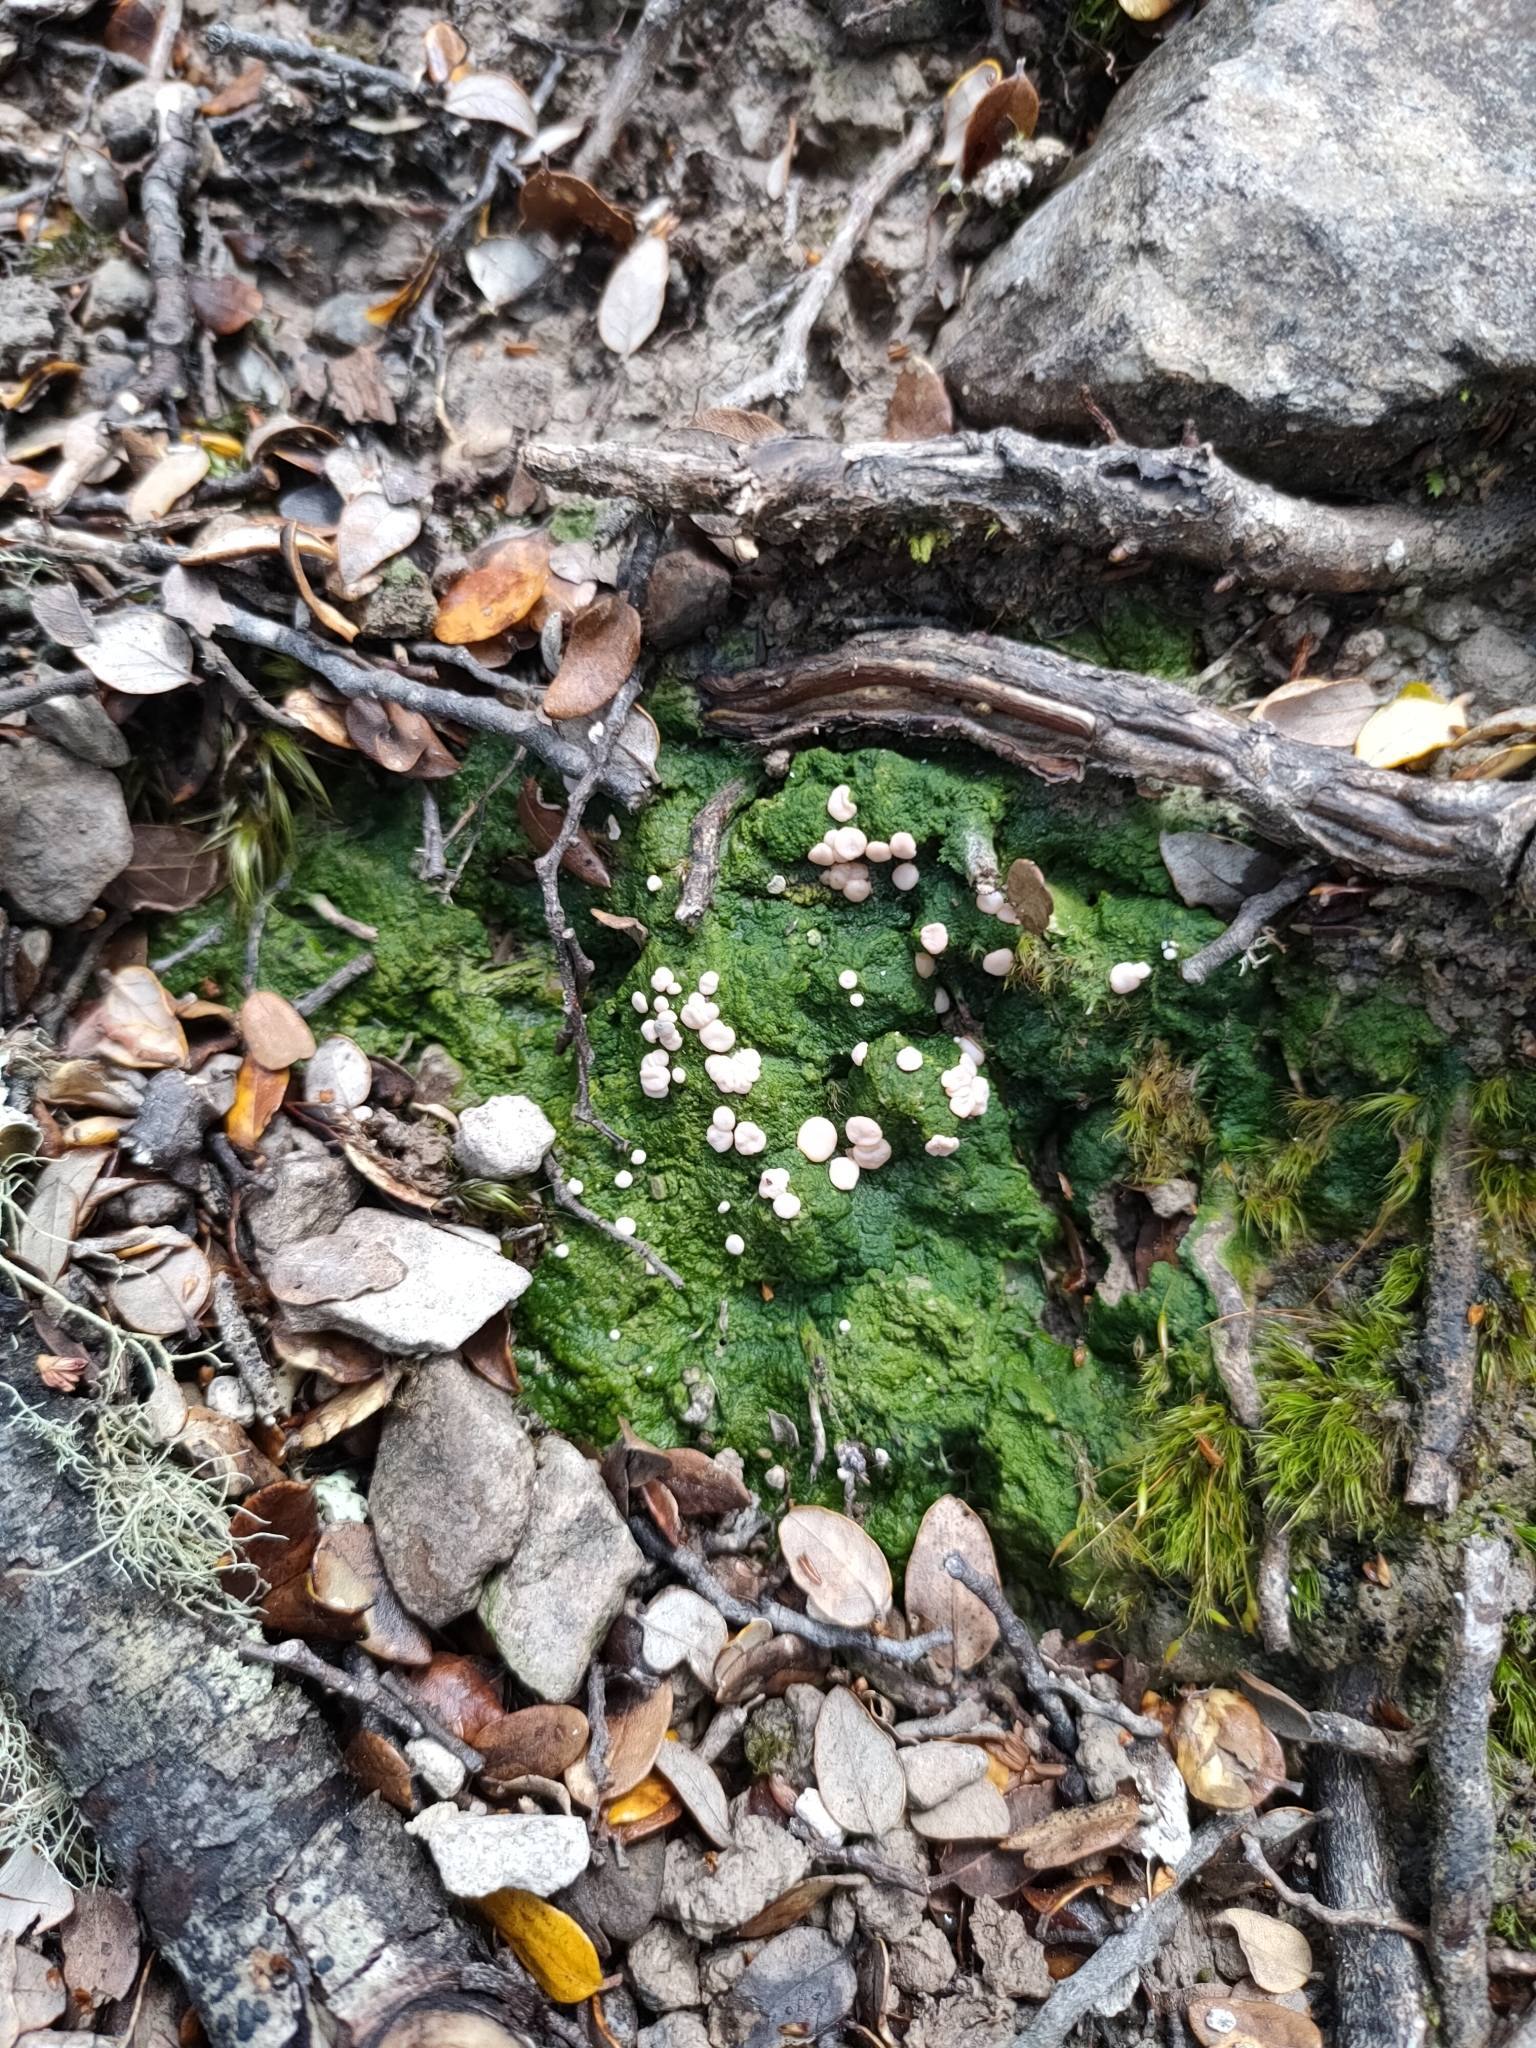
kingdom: Fungi
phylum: Ascomycota
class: Lecanoromycetes
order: Pertusariales
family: Icmadophilaceae
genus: Dibaeis
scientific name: Dibaeis absoluta
